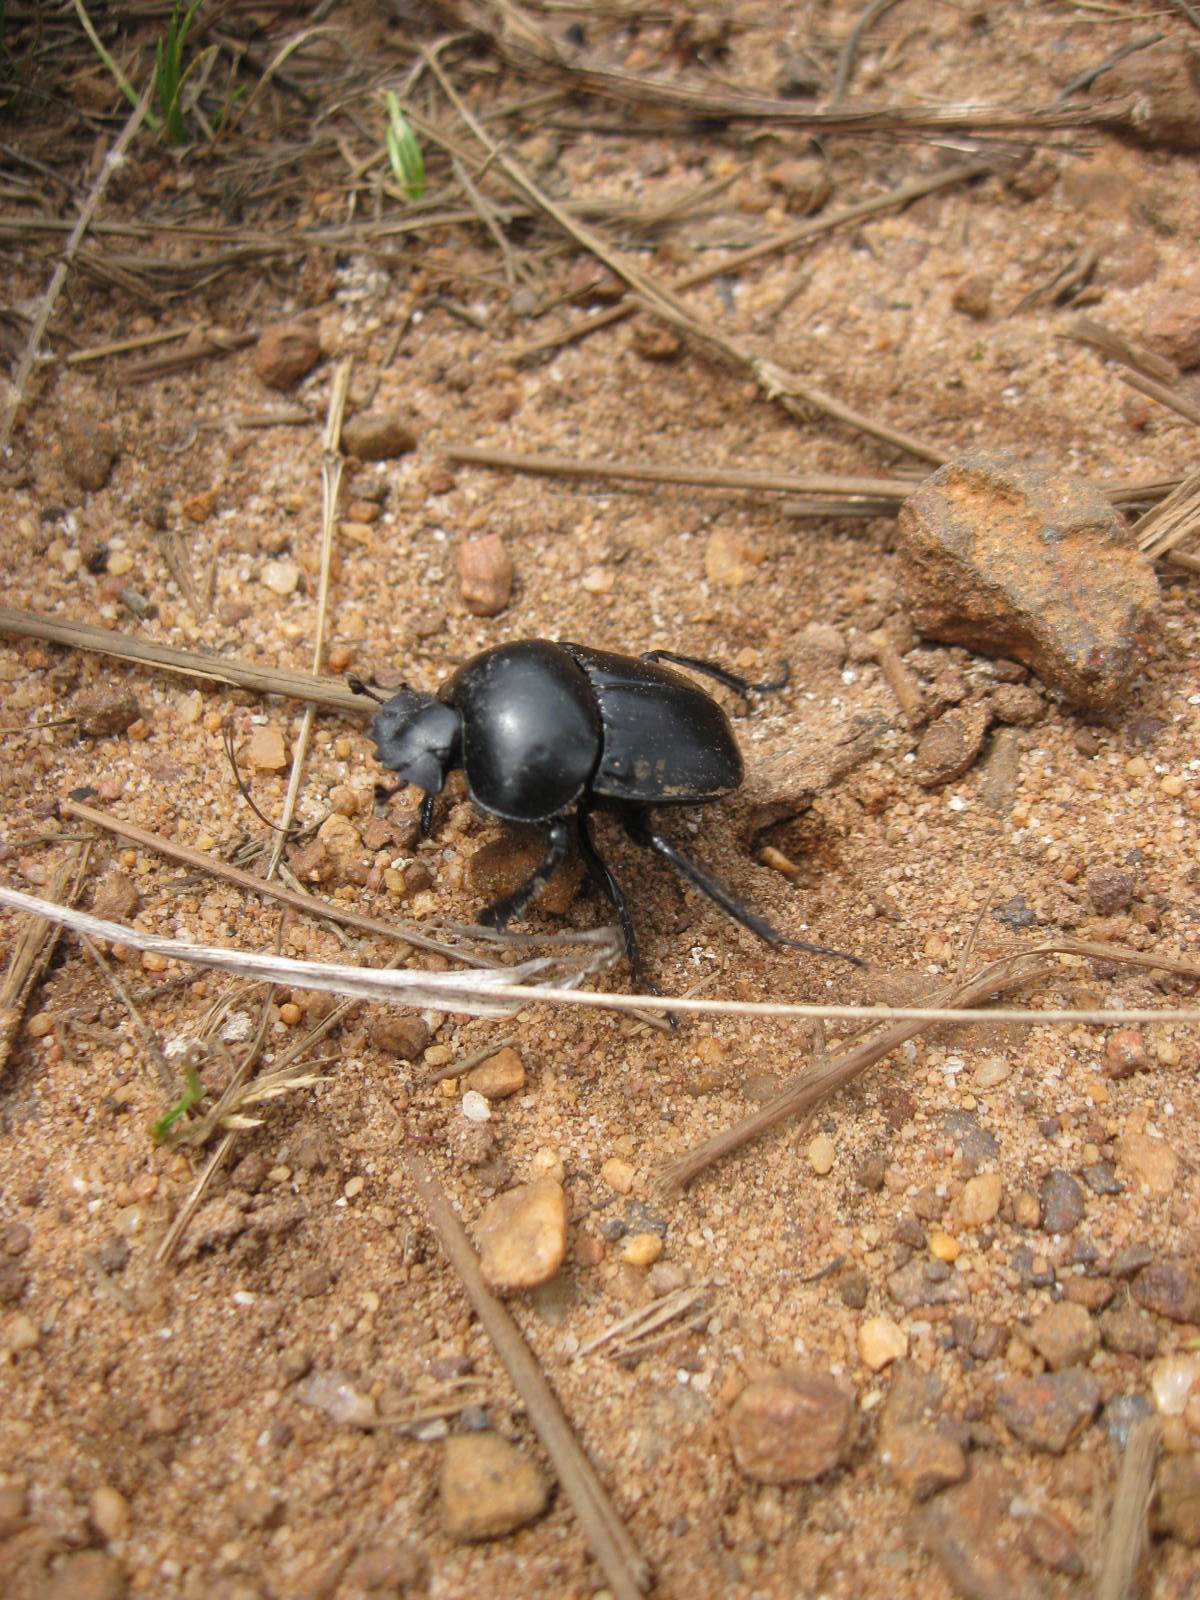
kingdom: Animalia
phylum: Arthropoda
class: Insecta
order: Coleoptera
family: Scarabaeidae
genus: Scarabaeus
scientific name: Scarabaeus convexus
